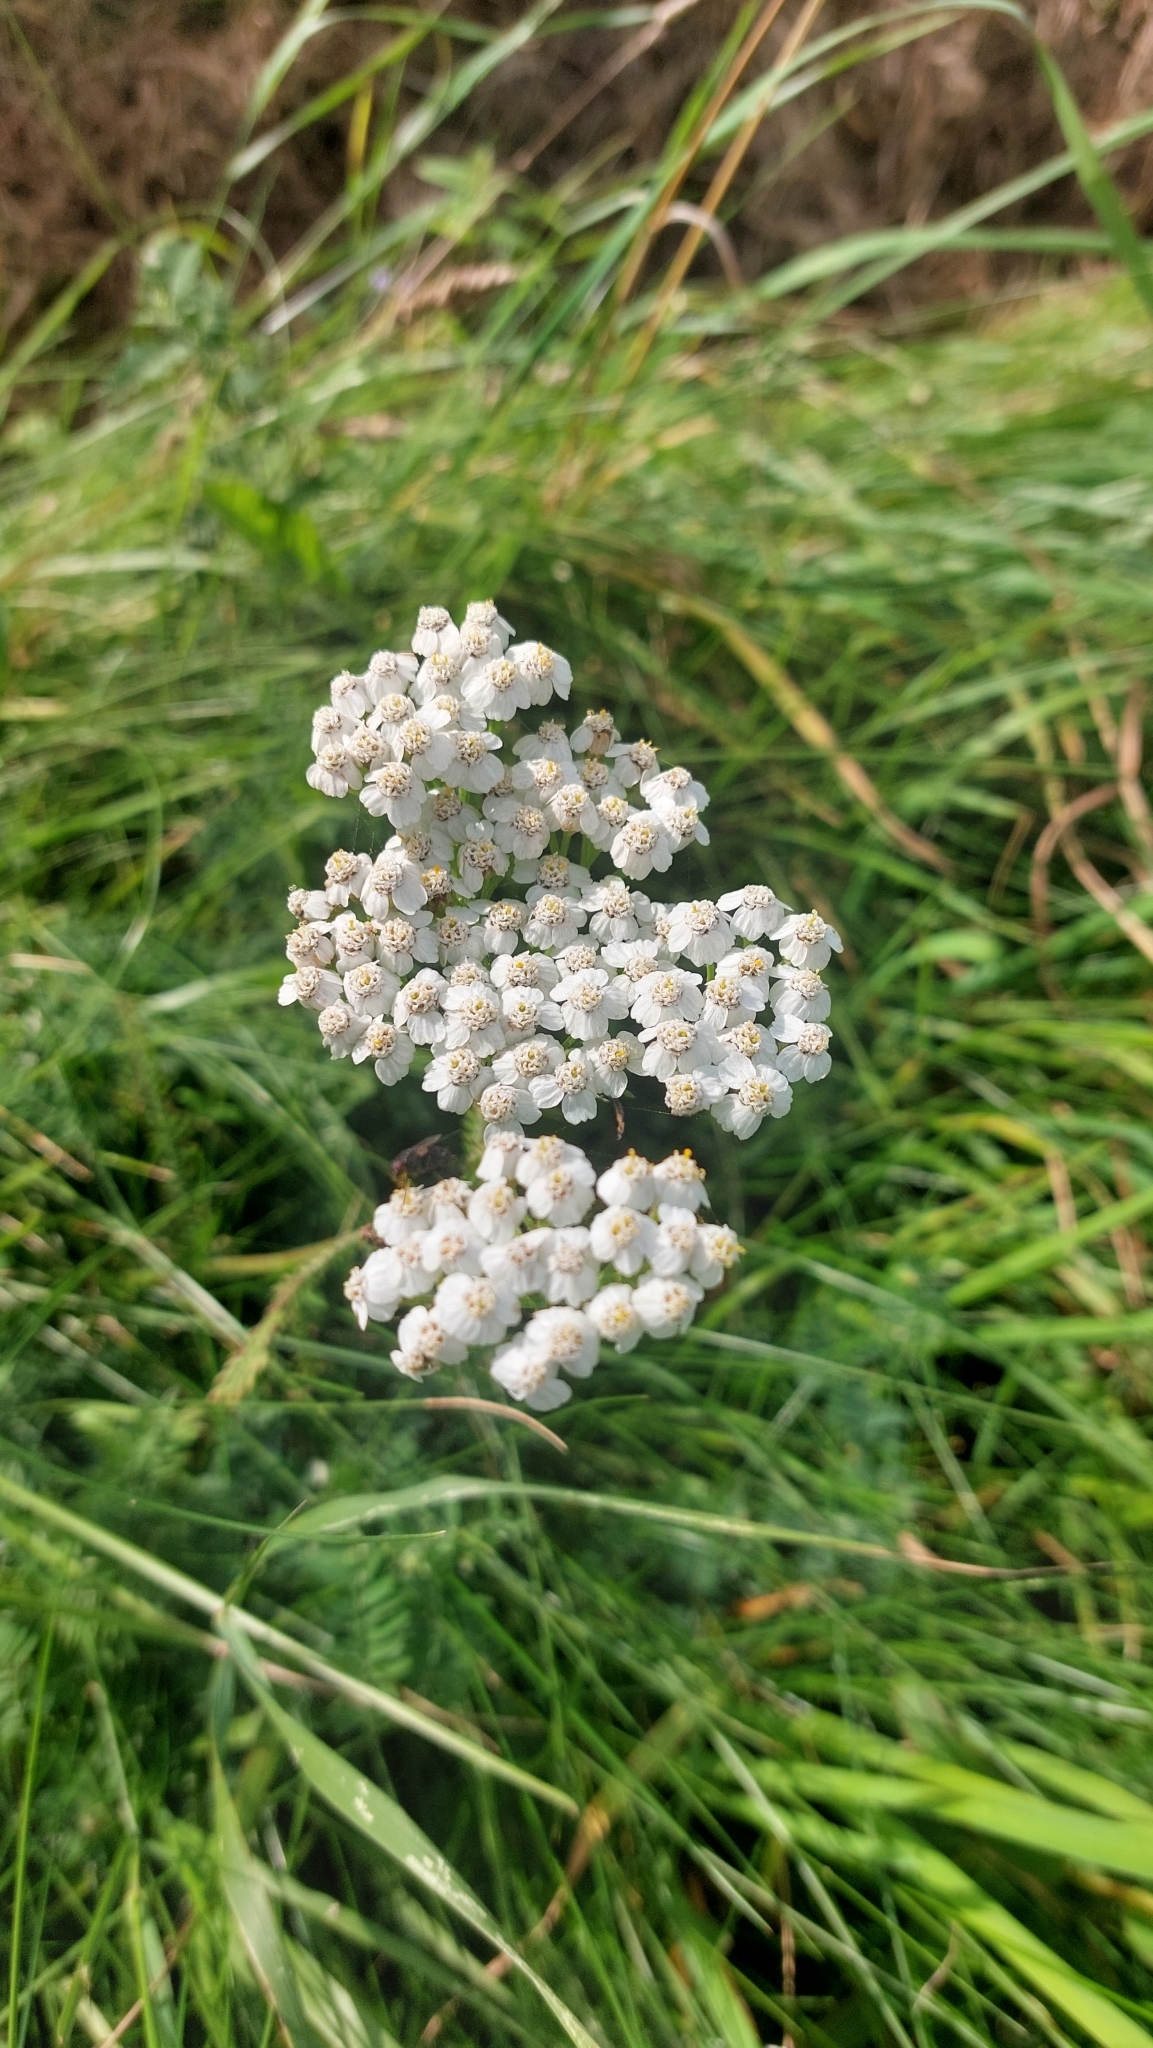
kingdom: Plantae
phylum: Tracheophyta
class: Magnoliopsida
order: Asterales
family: Asteraceae
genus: Achillea
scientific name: Achillea millefolium
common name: Yarrow
